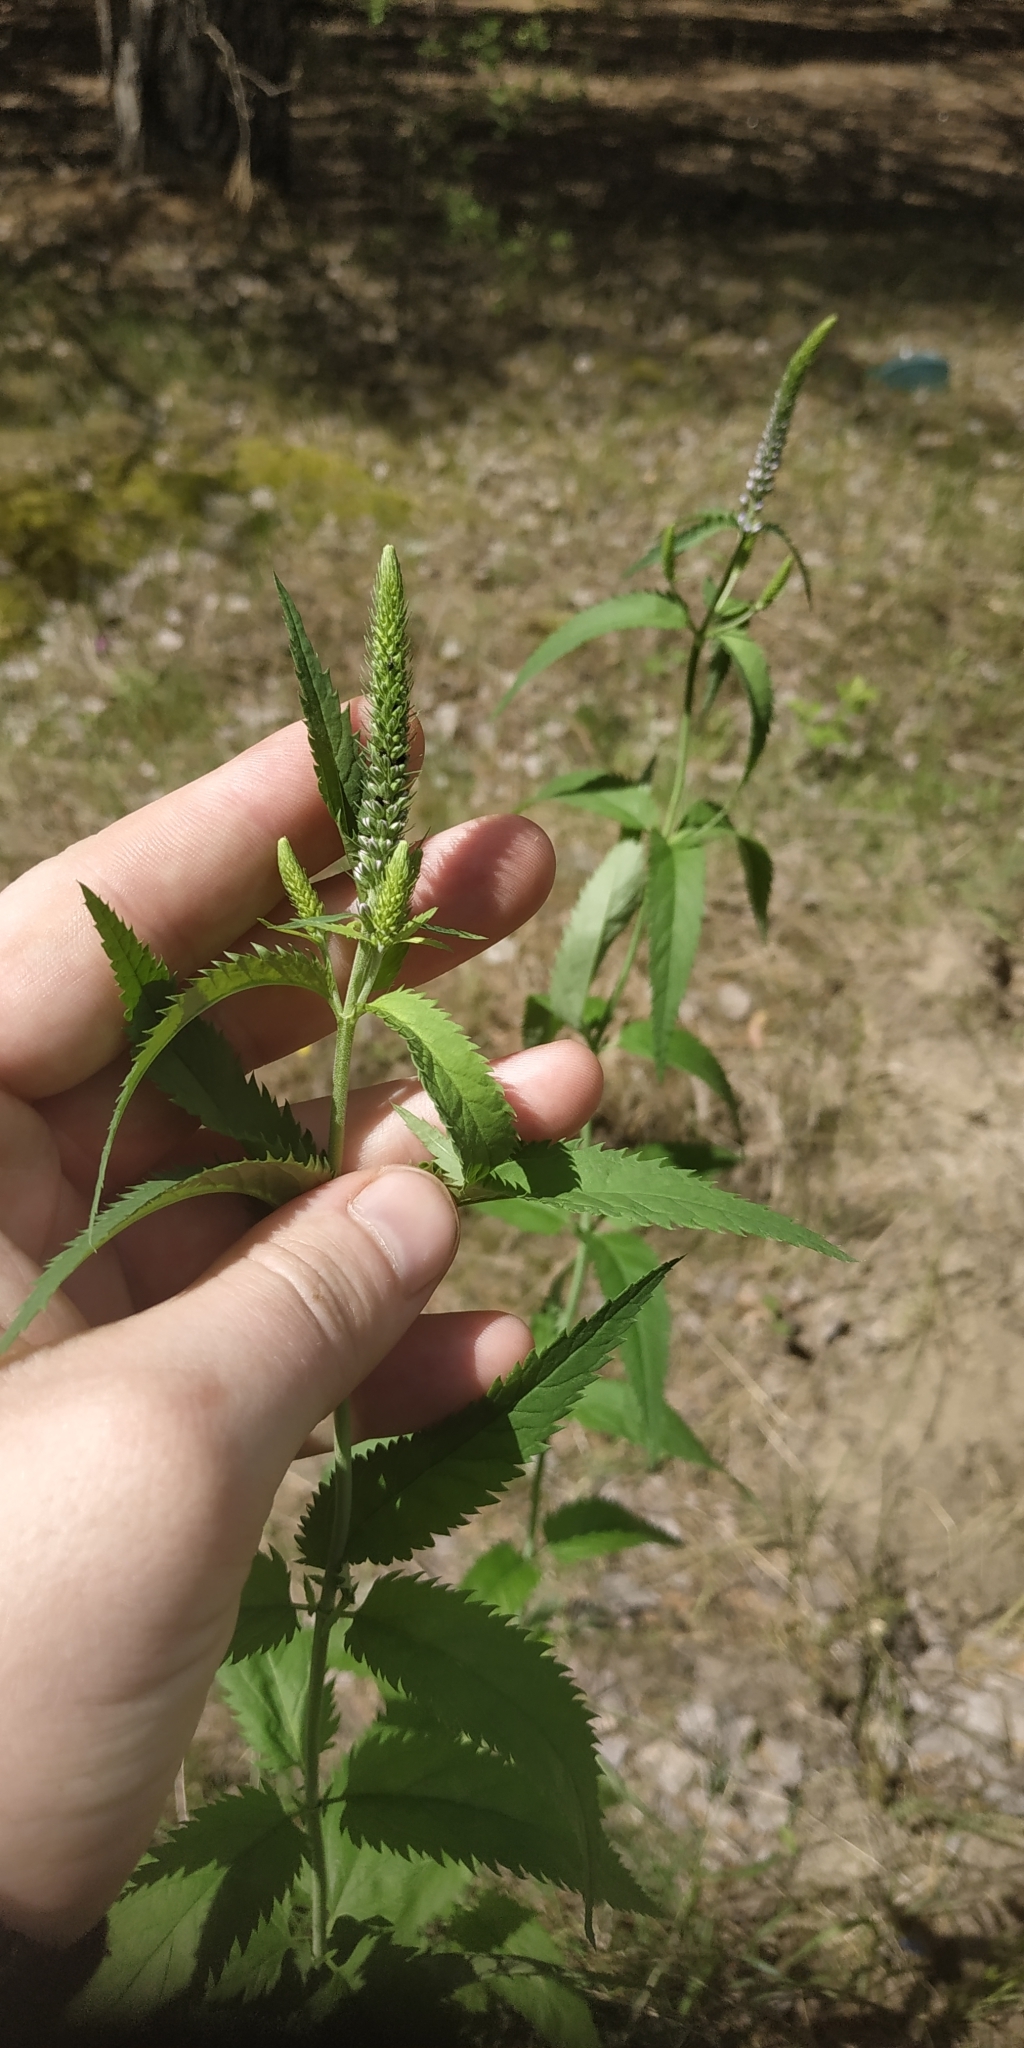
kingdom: Plantae
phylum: Tracheophyta
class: Magnoliopsida
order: Lamiales
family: Plantaginaceae
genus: Veronica
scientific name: Veronica longifolia
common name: Garden speedwell
